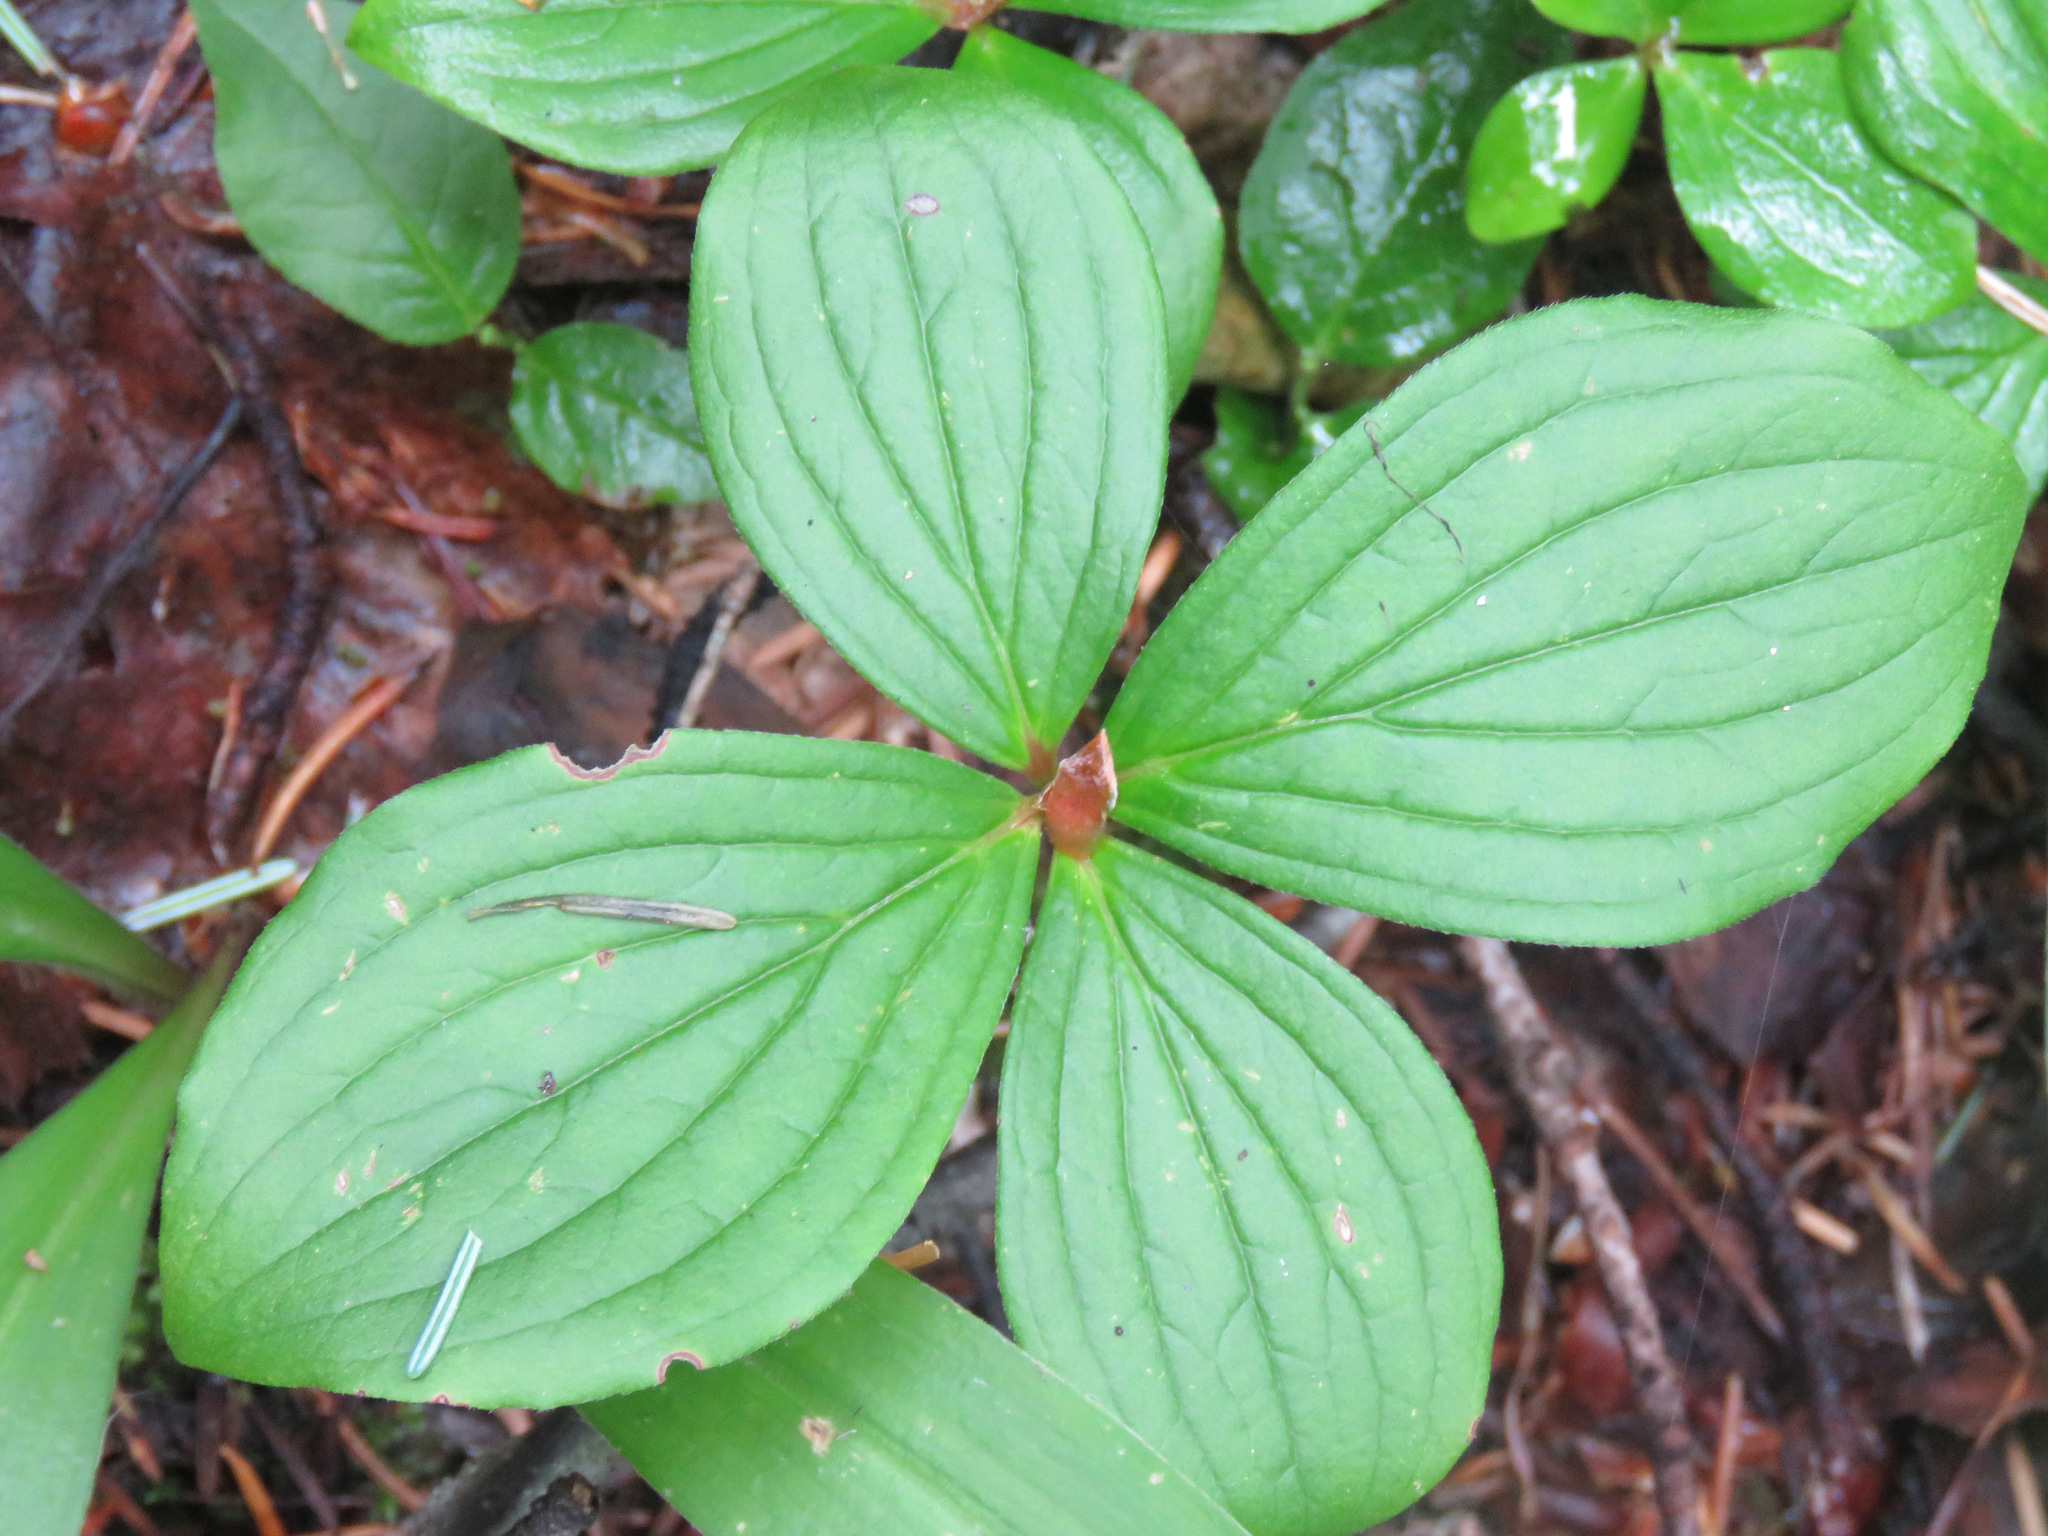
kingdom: Plantae
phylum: Tracheophyta
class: Magnoliopsida
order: Cornales
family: Cornaceae
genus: Cornus
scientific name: Cornus canadensis
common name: Creeping dogwood
